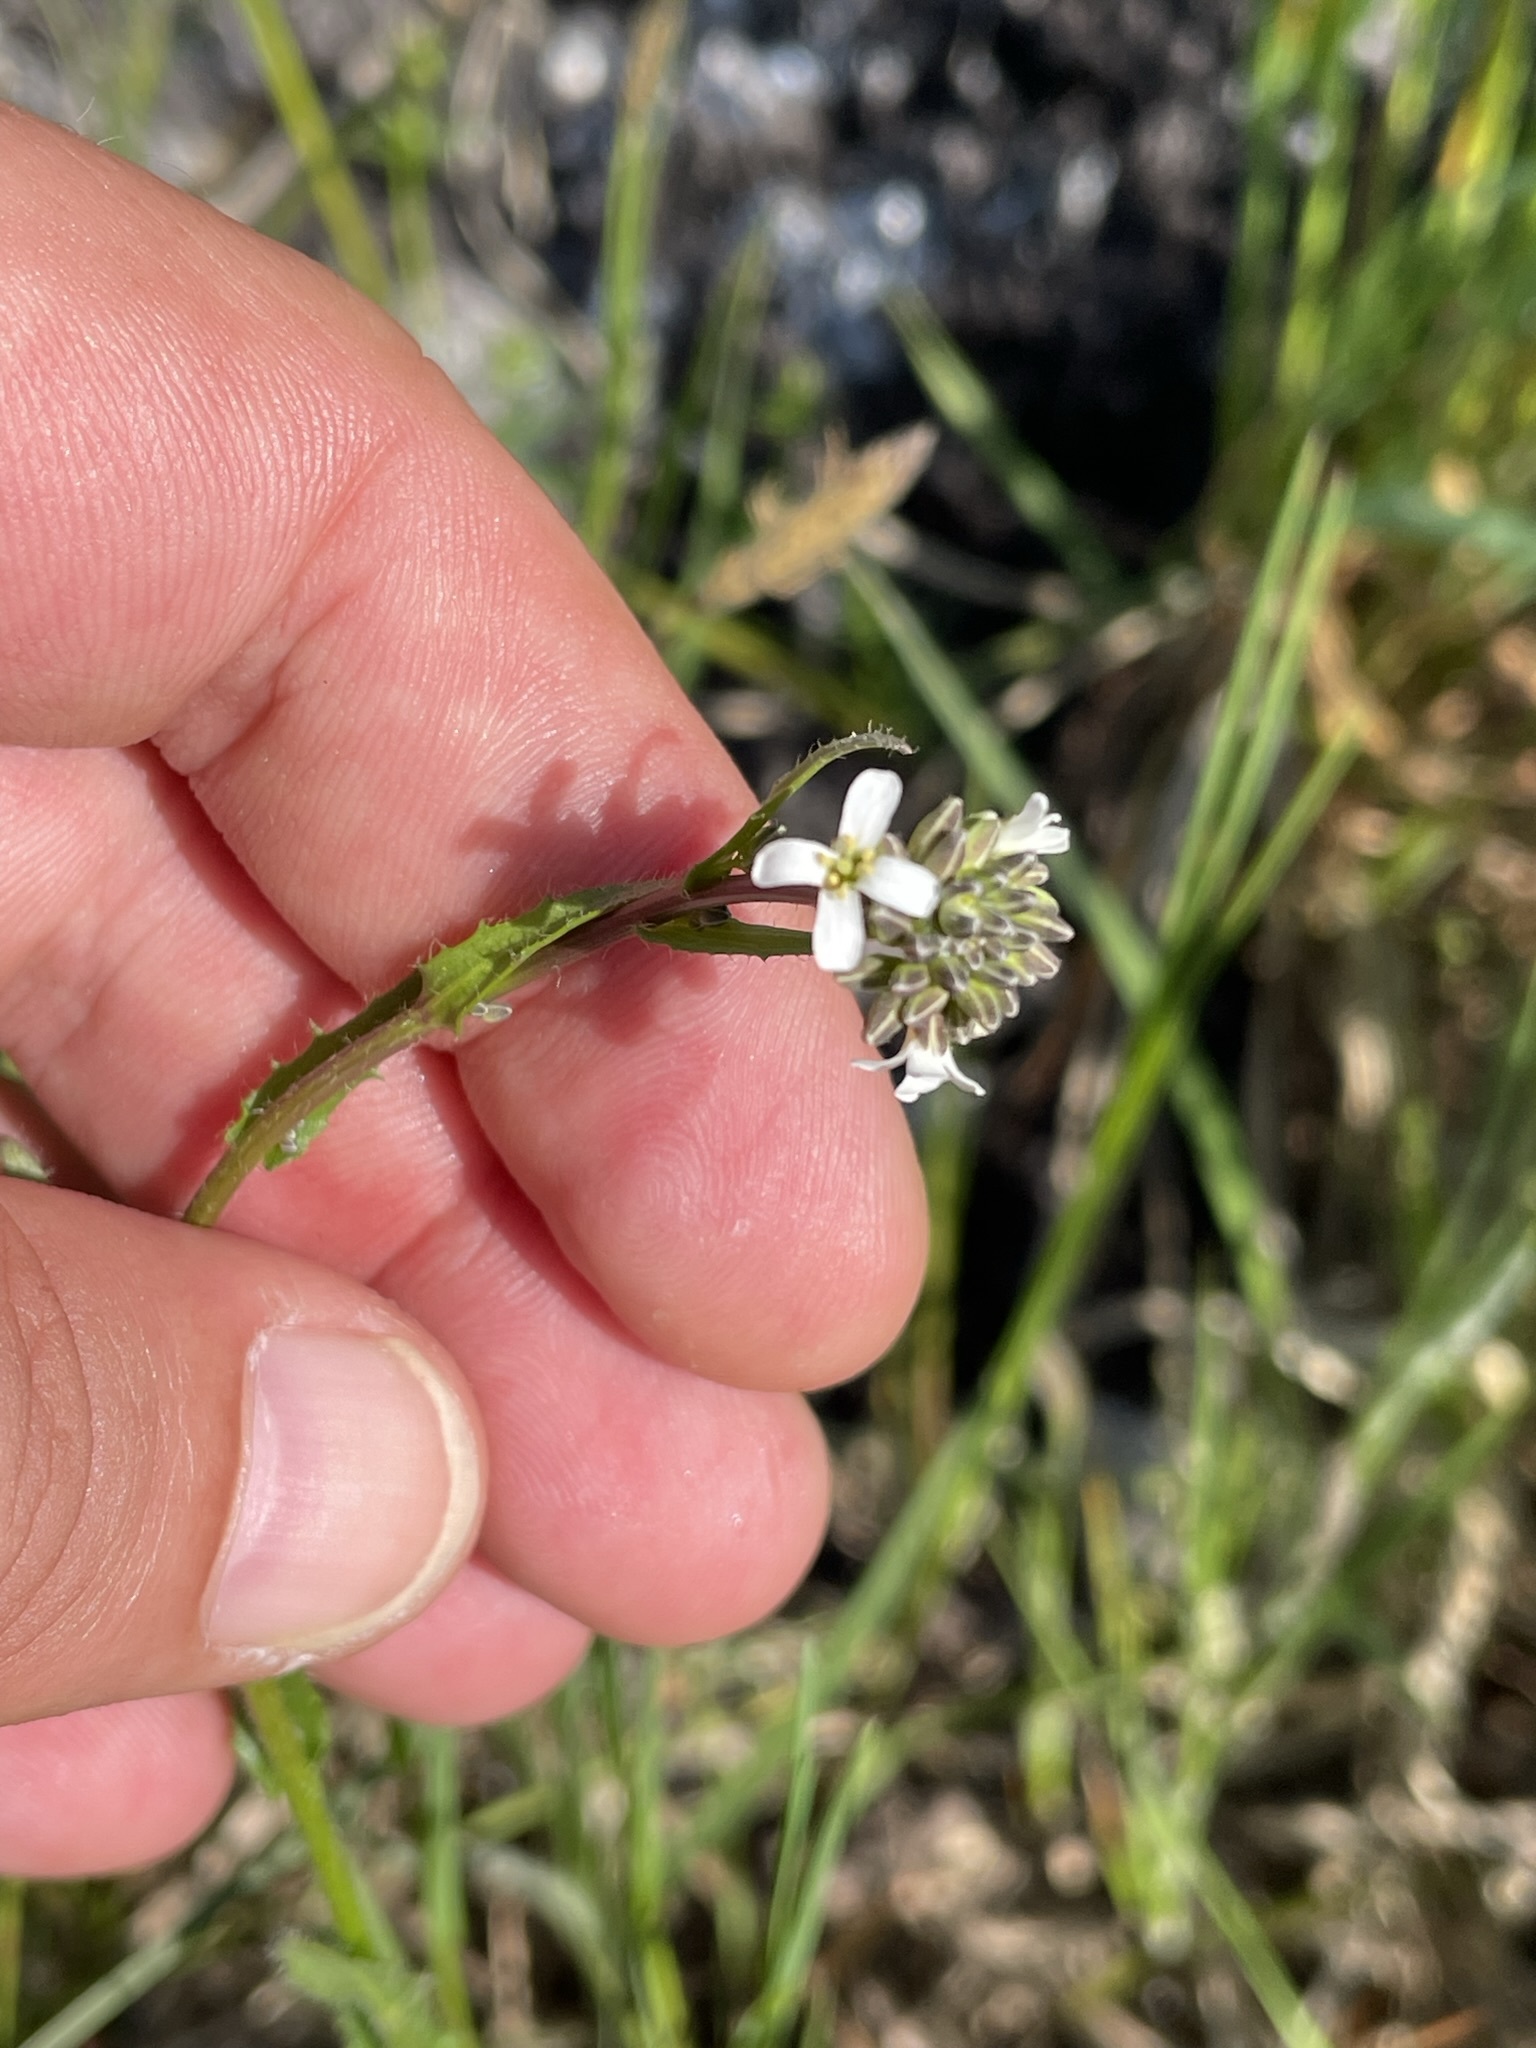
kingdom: Plantae
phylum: Tracheophyta
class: Magnoliopsida
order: Brassicales
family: Brassicaceae
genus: Arabis
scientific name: Arabis hirsuta
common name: Hairy rock-cress
